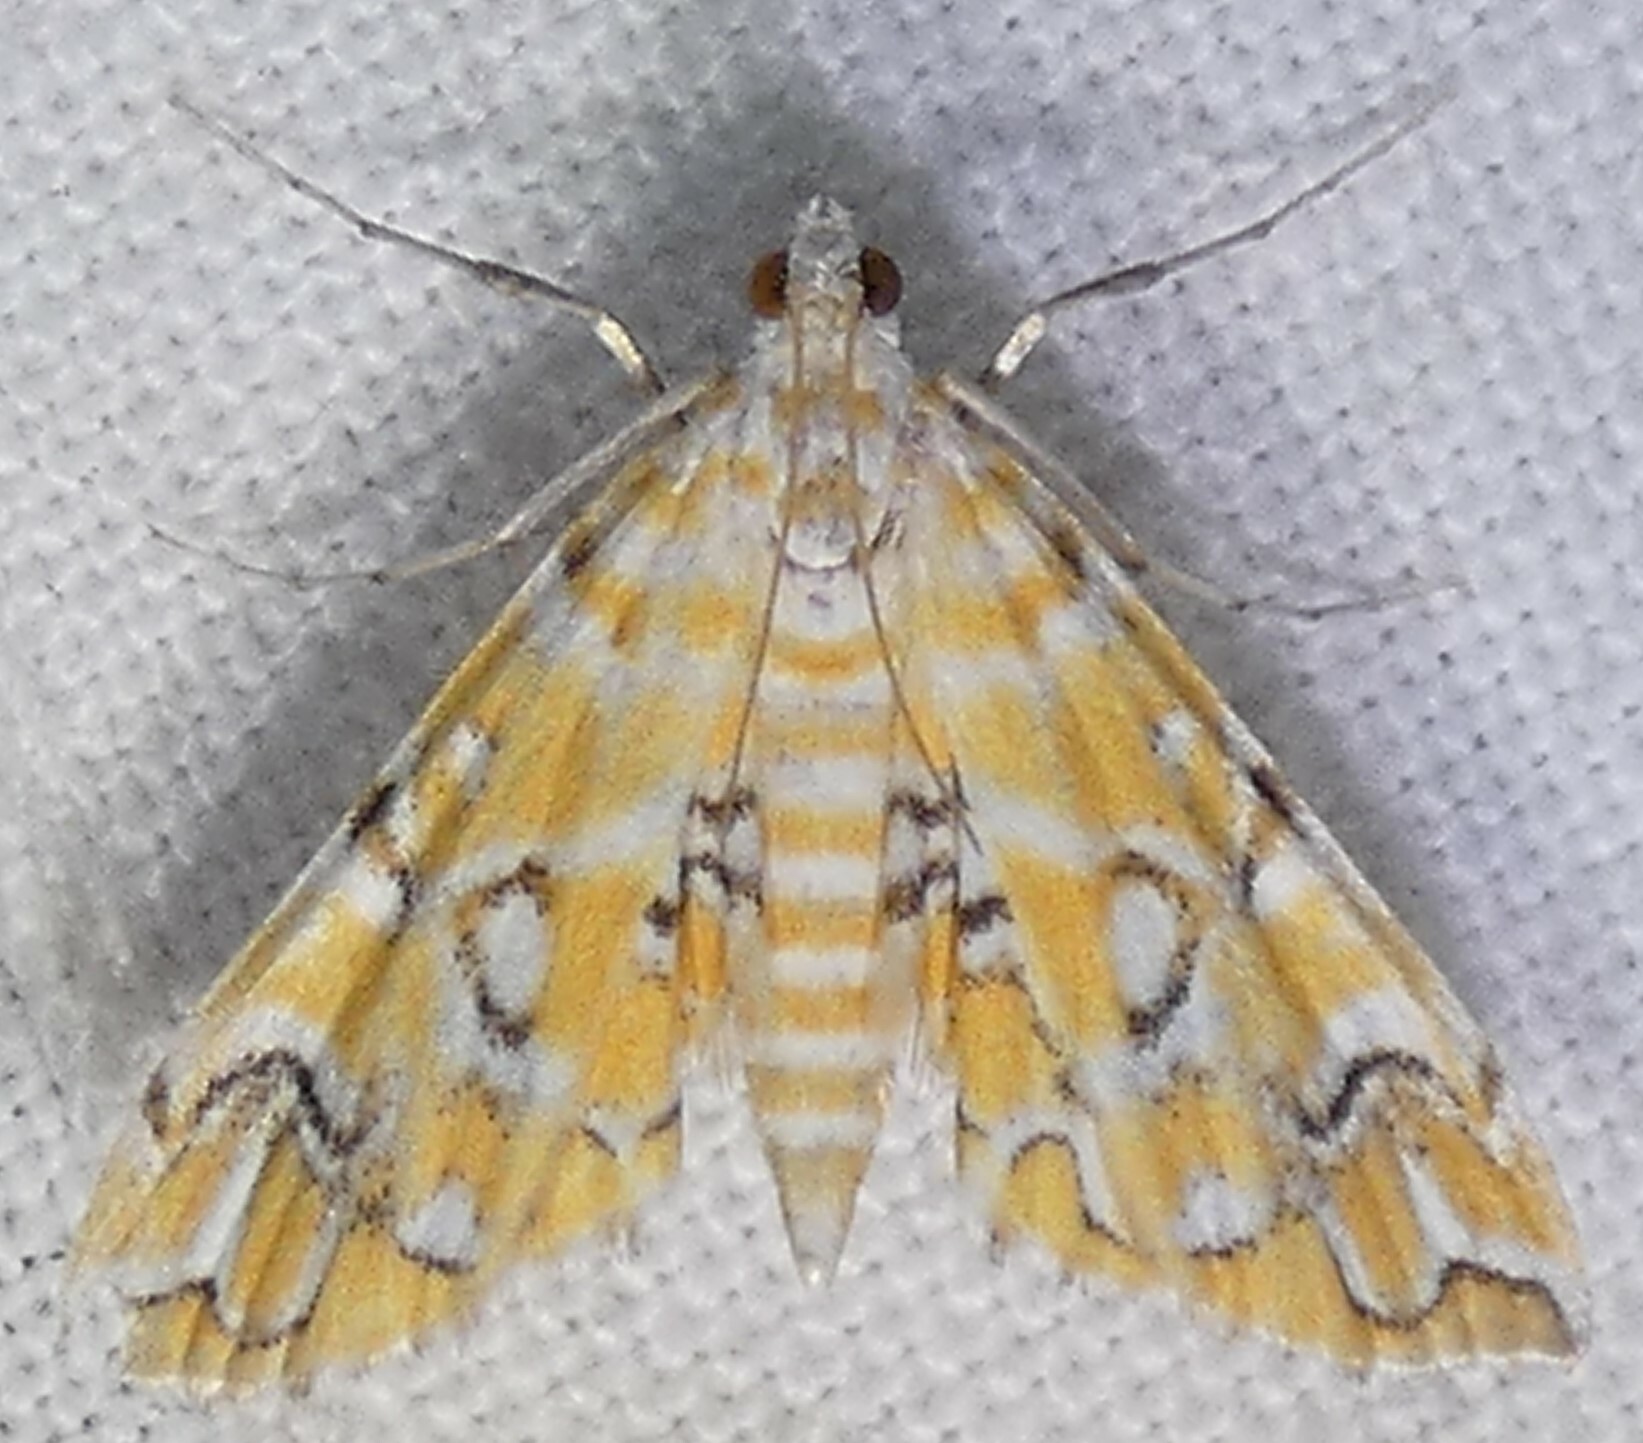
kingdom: Animalia
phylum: Arthropoda
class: Insecta
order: Lepidoptera
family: Crambidae
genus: Elophila
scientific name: Elophila icciusalis
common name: Pondside pyralid moth
